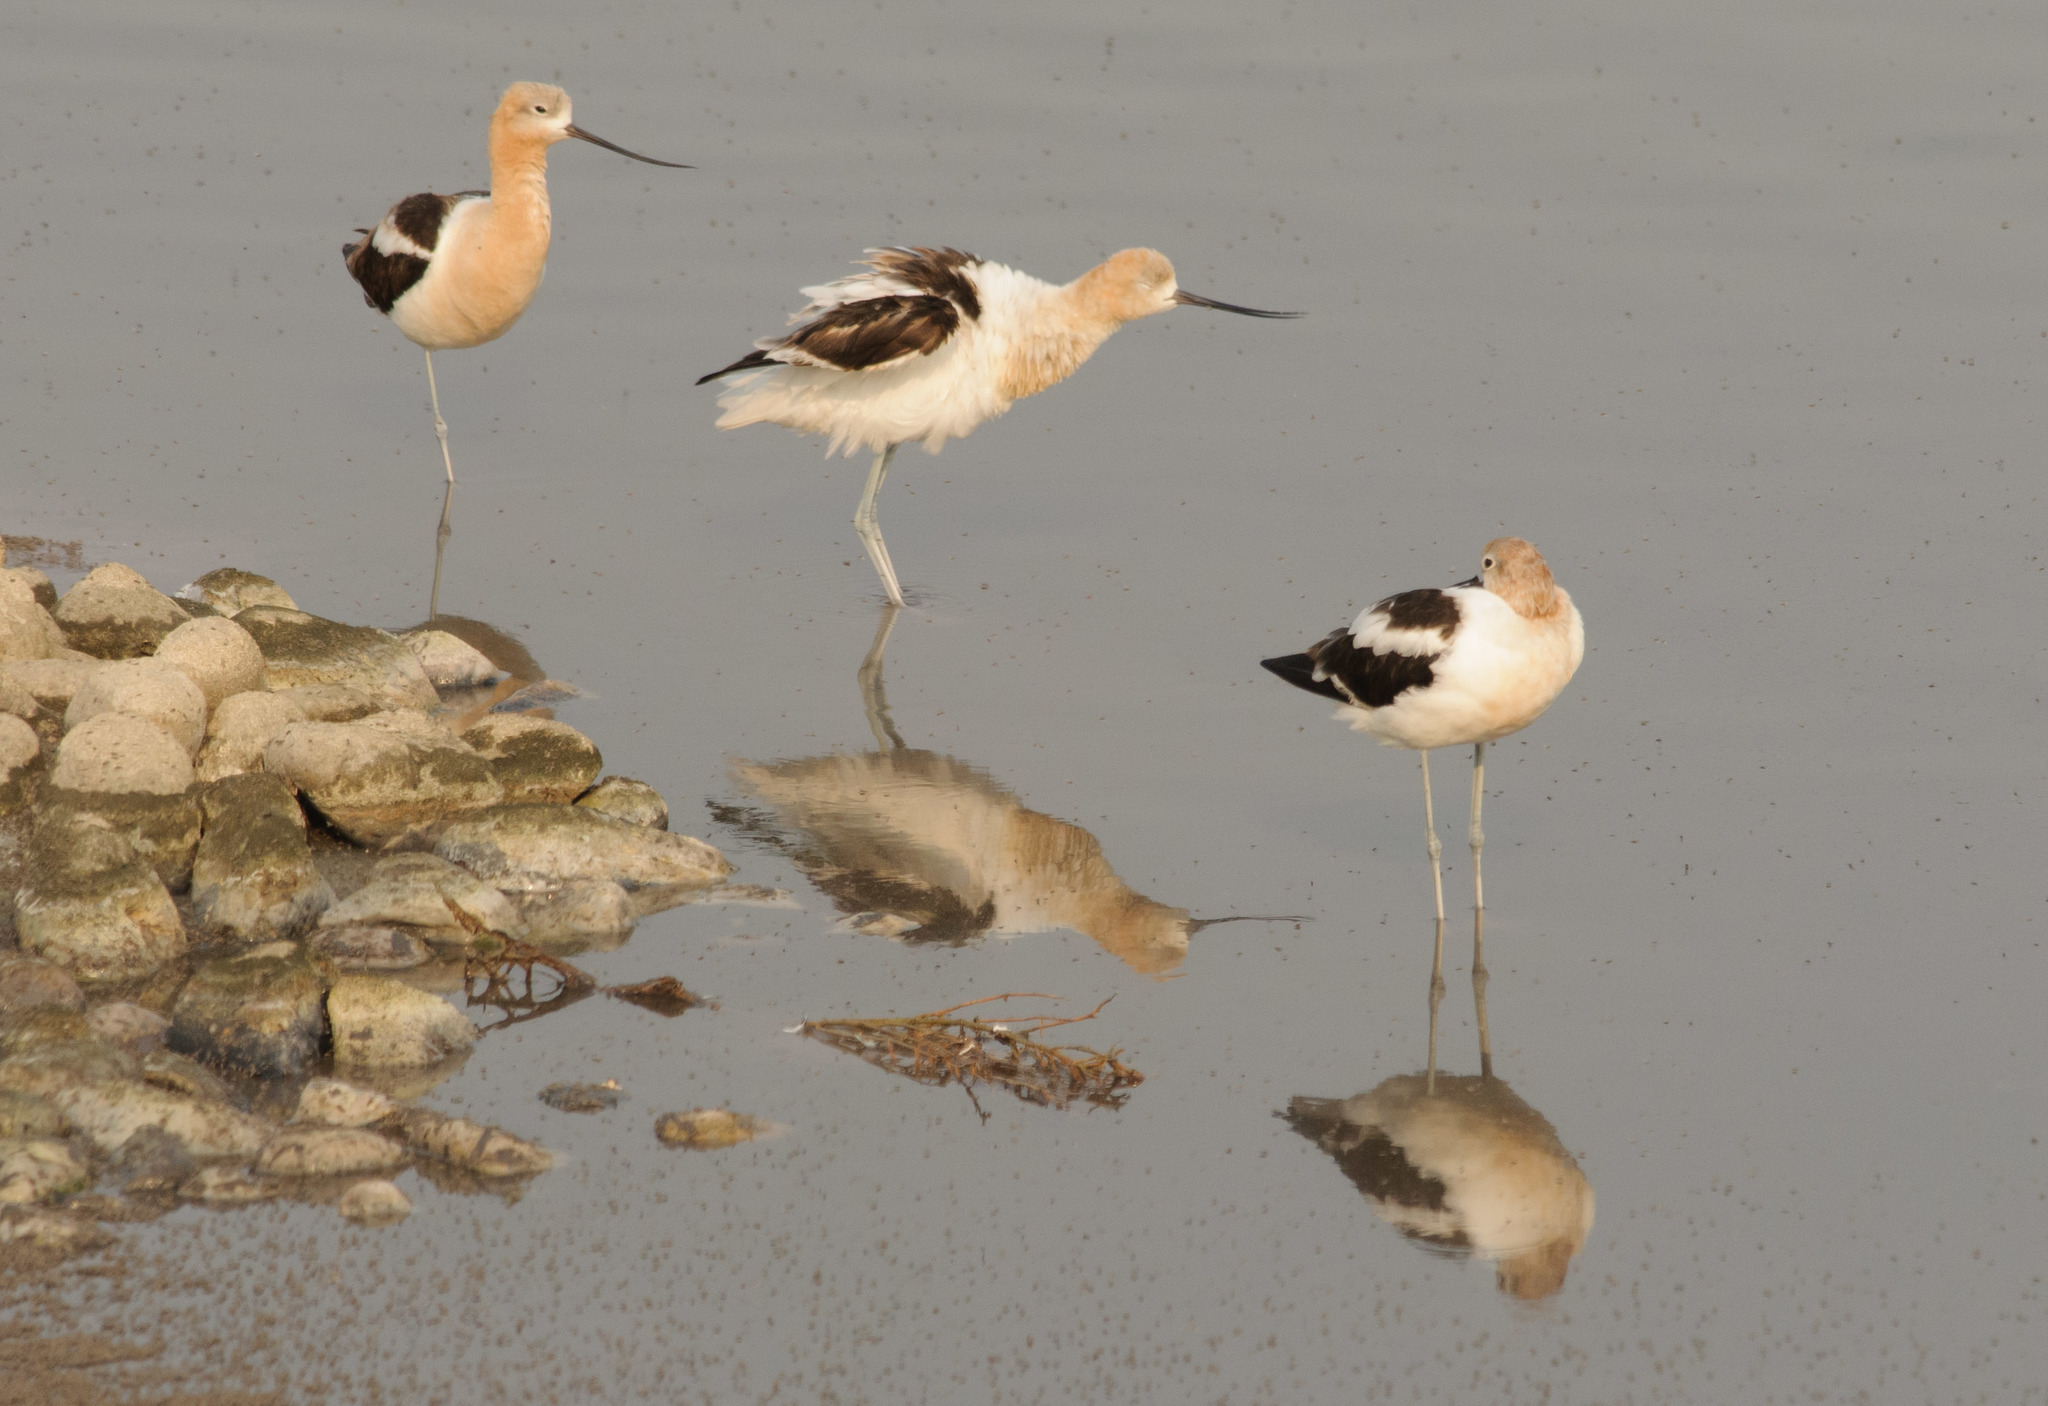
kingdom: Animalia
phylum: Chordata
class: Aves
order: Charadriiformes
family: Recurvirostridae
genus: Recurvirostra
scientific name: Recurvirostra americana
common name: American avocet
